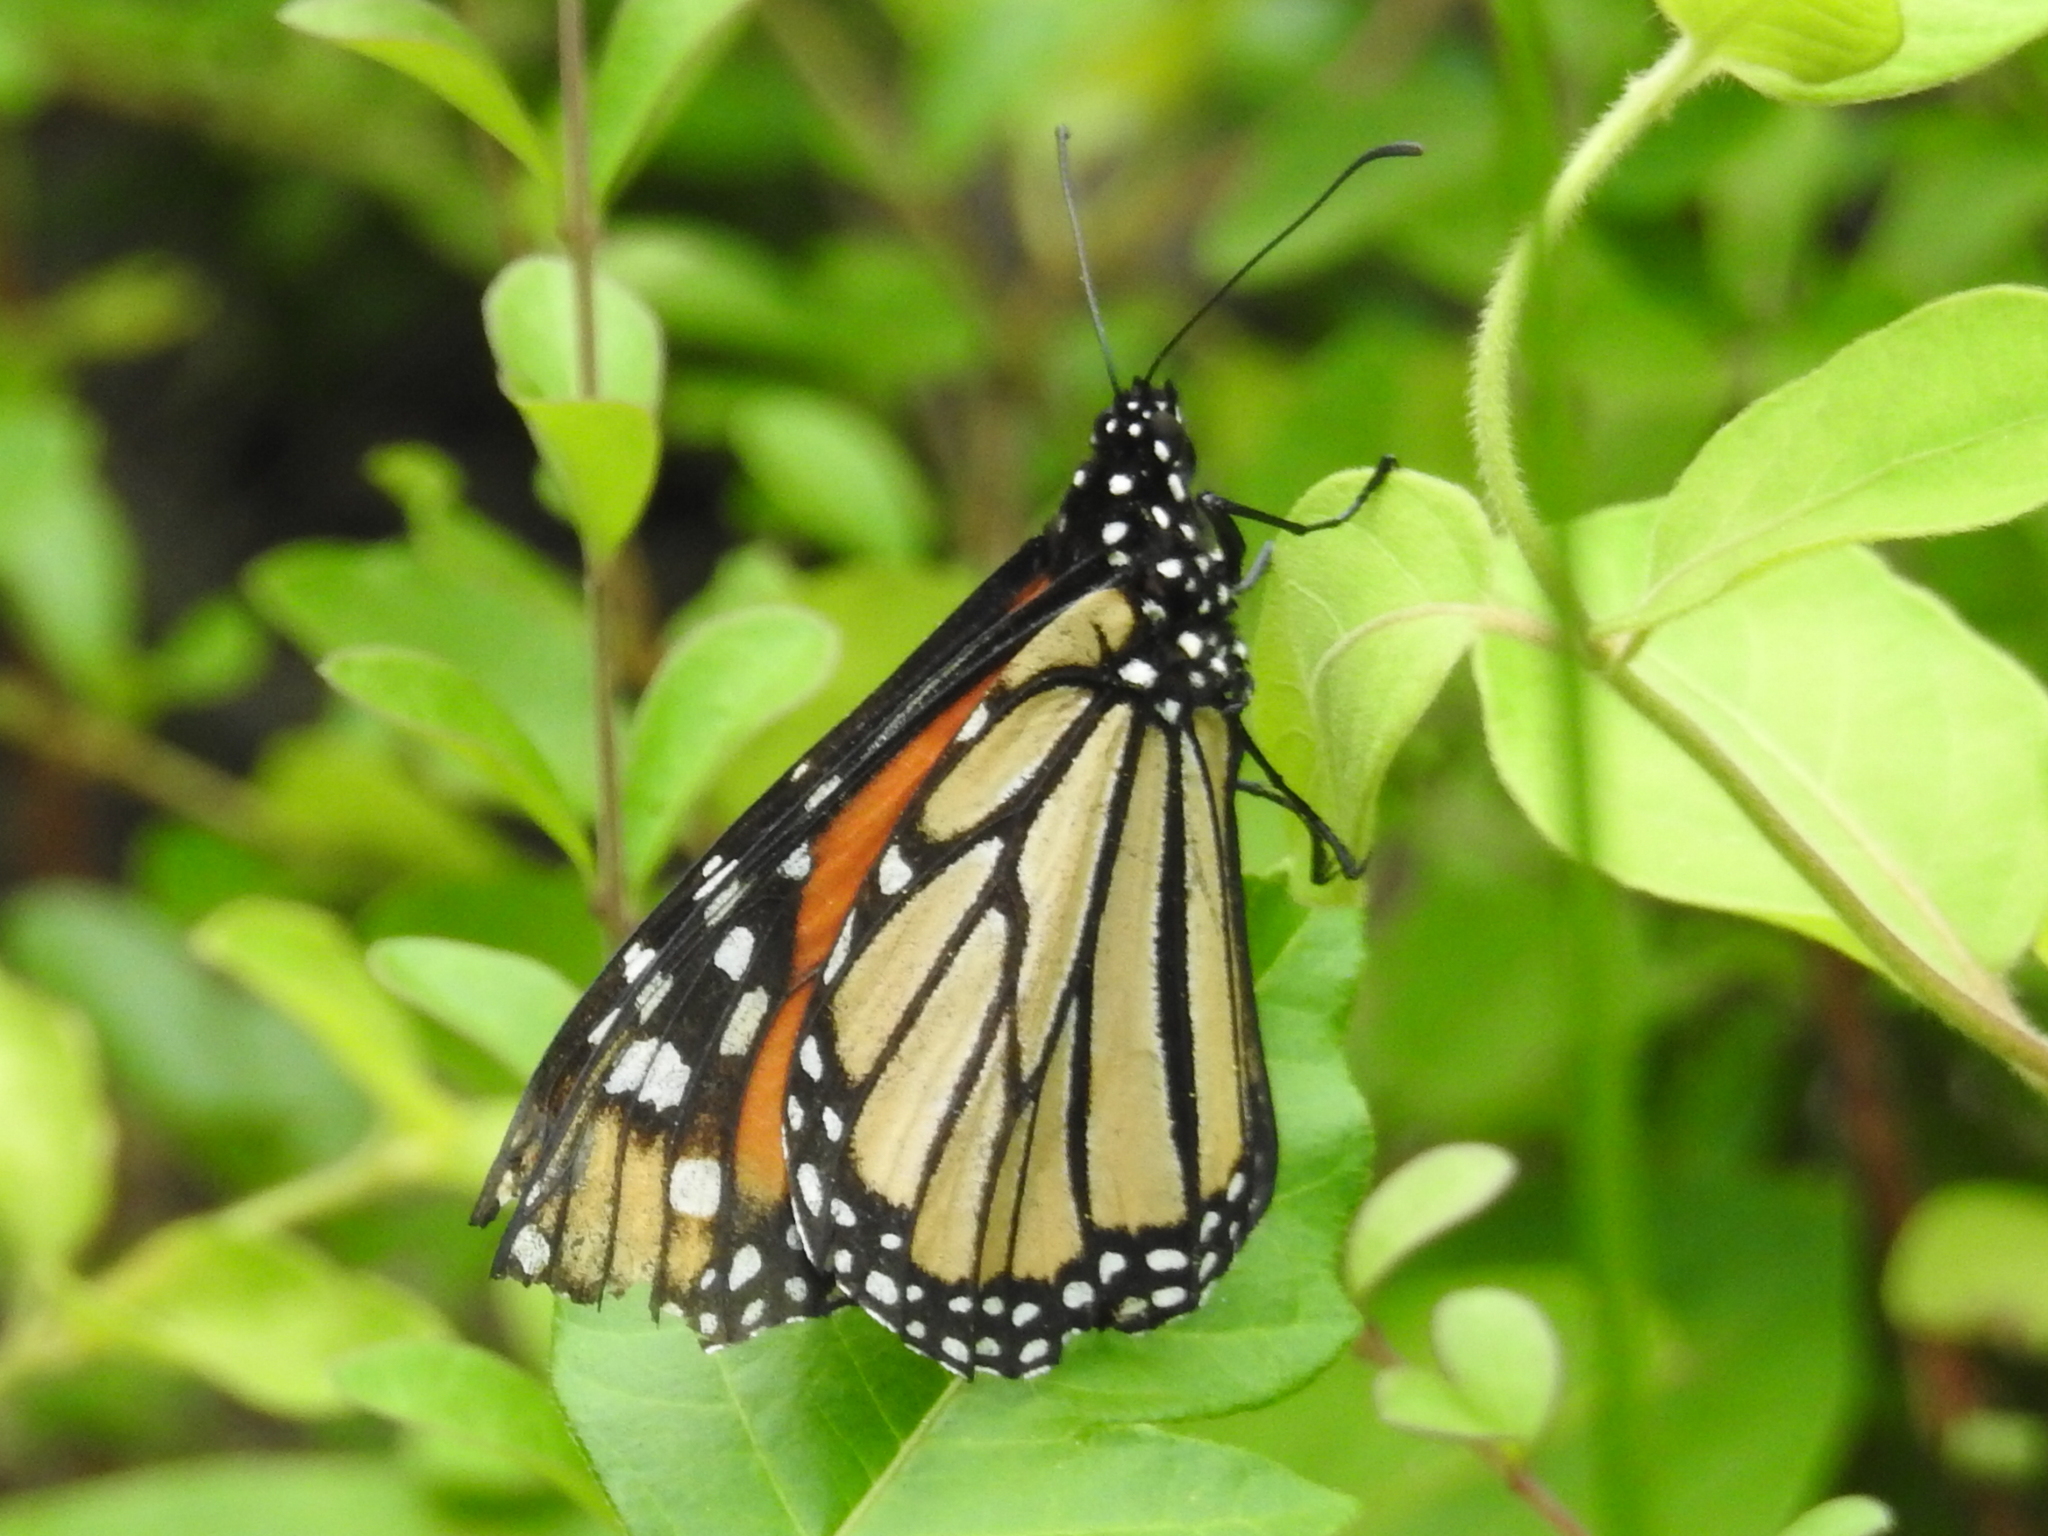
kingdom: Animalia
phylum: Arthropoda
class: Insecta
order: Lepidoptera
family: Nymphalidae
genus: Danaus
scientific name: Danaus plexippus
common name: Monarch
